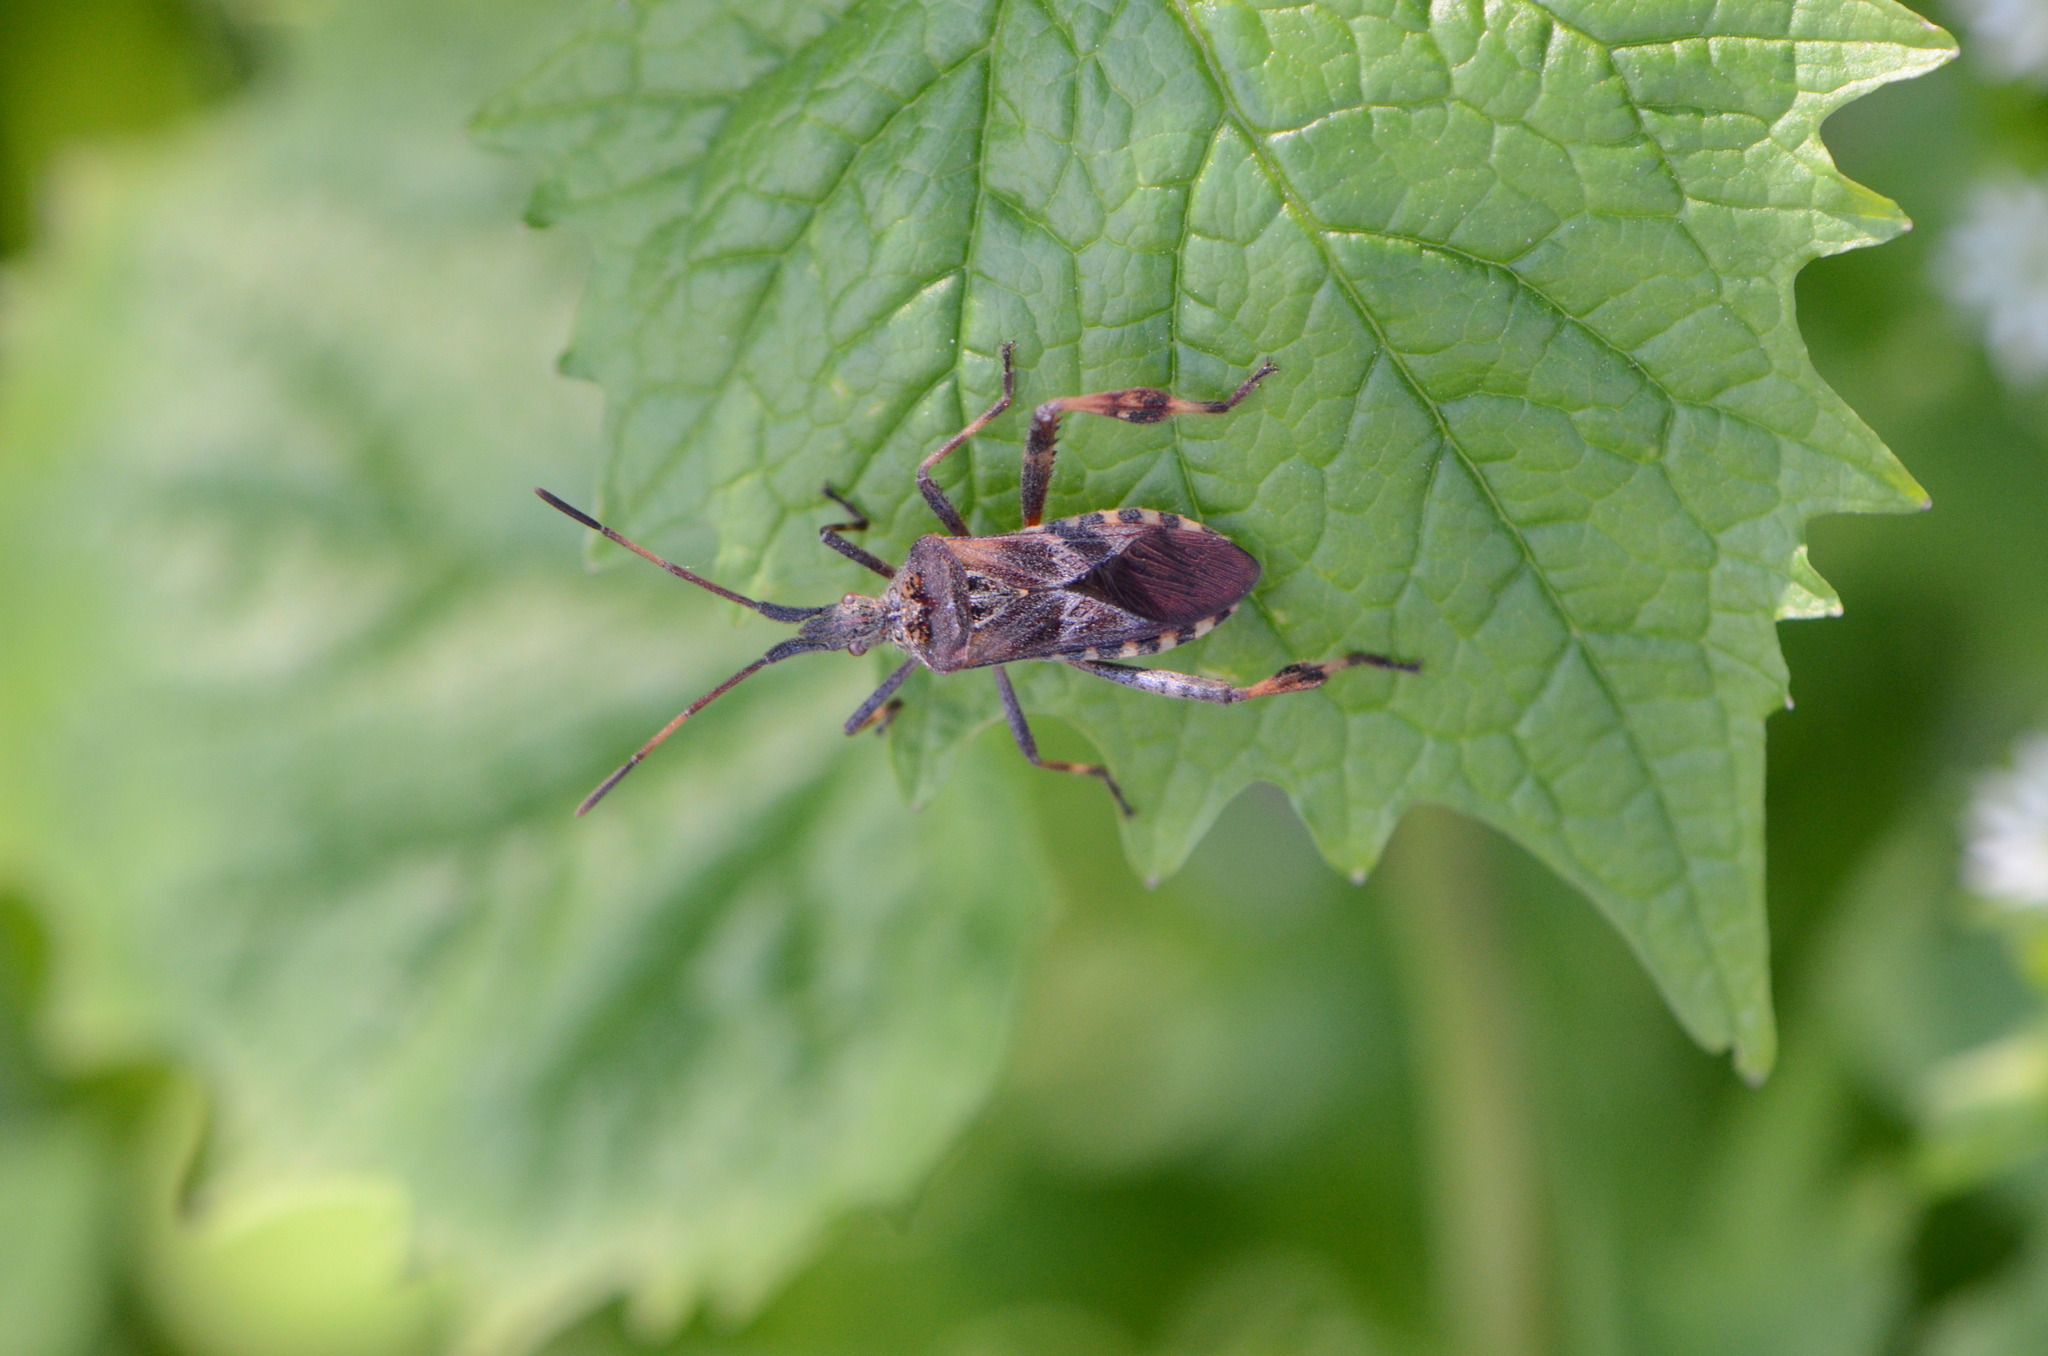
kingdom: Animalia
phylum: Arthropoda
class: Insecta
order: Hemiptera
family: Coreidae
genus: Leptoglossus
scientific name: Leptoglossus occidentalis
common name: Western conifer-seed bug
